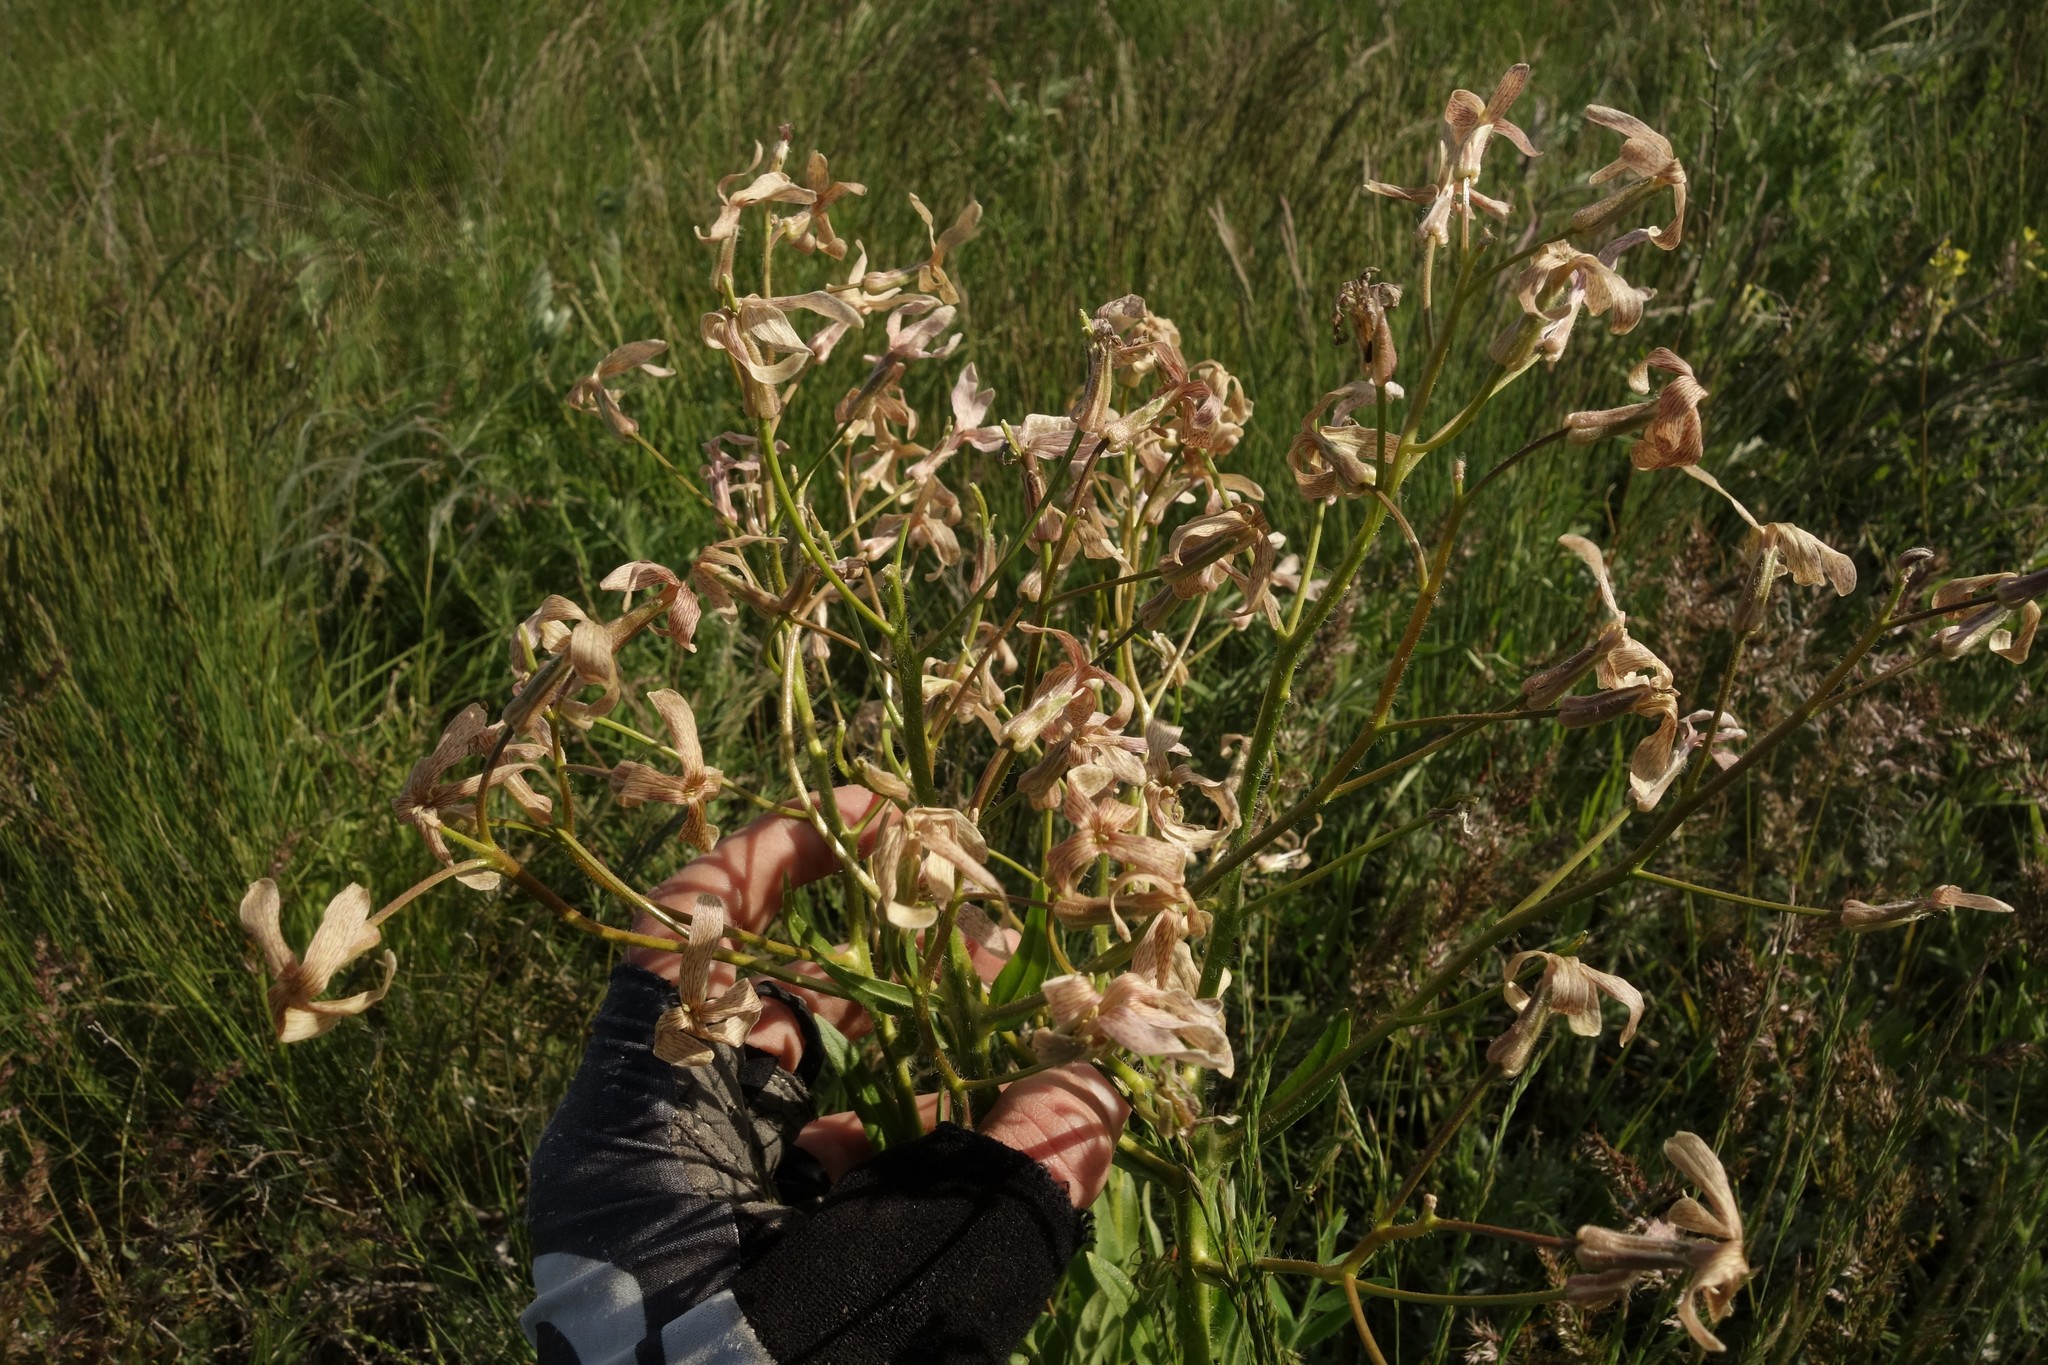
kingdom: Plantae
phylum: Tracheophyta
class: Magnoliopsida
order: Brassicales
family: Brassicaceae
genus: Hesperis
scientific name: Hesperis tristis
